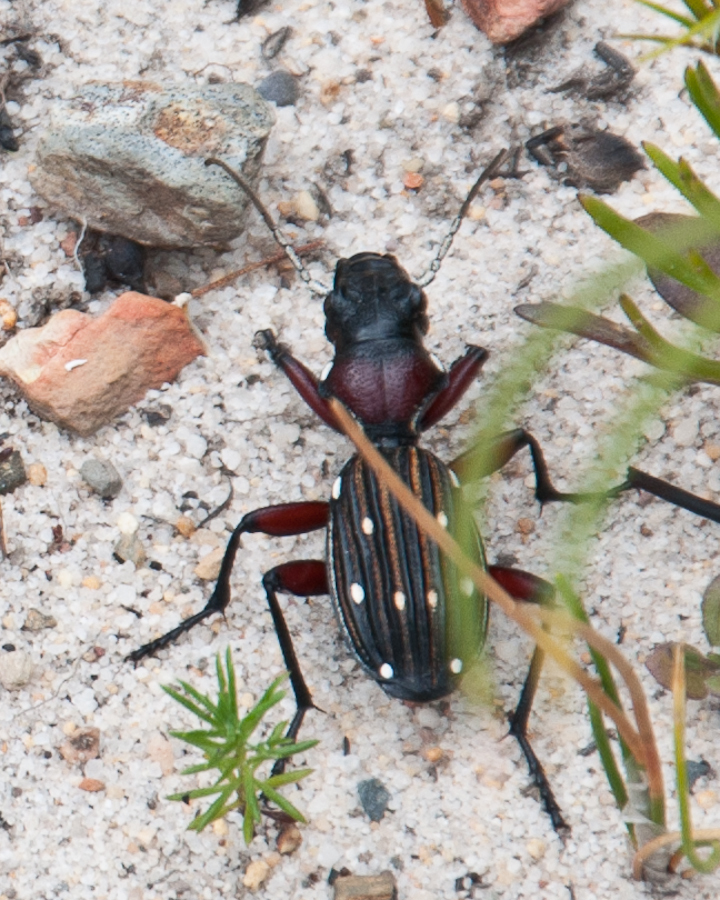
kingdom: Animalia
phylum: Arthropoda
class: Insecta
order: Coleoptera
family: Carabidae
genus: Anthia
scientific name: Anthia decemguttata
